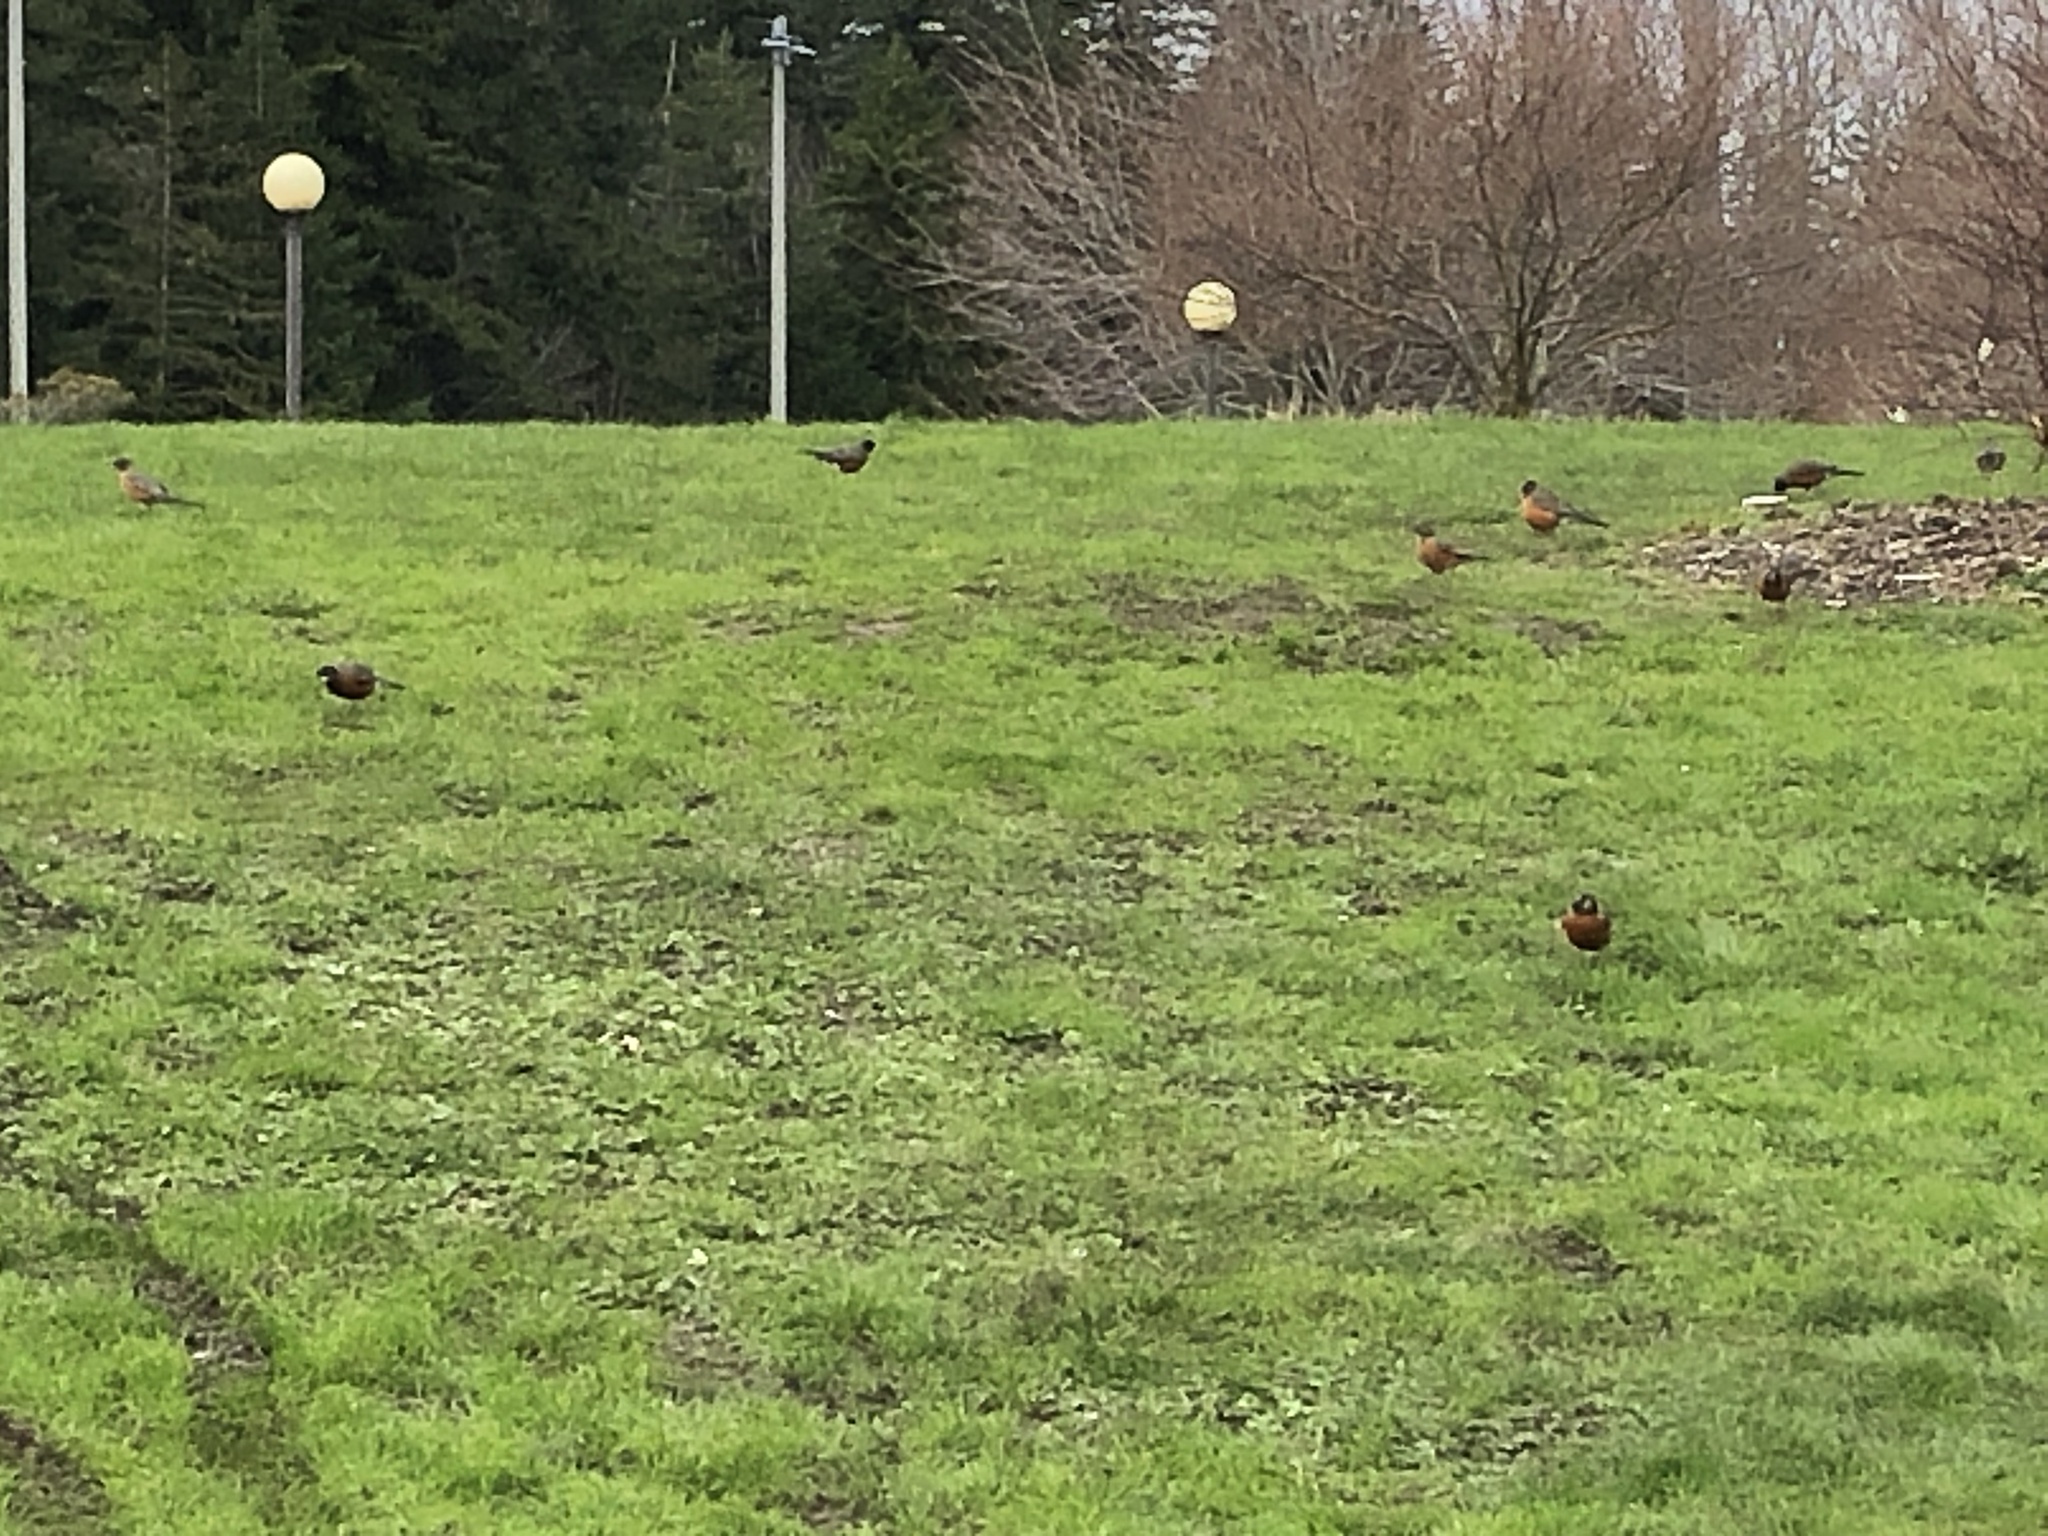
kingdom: Animalia
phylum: Chordata
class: Aves
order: Passeriformes
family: Turdidae
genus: Turdus
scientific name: Turdus migratorius
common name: American robin
